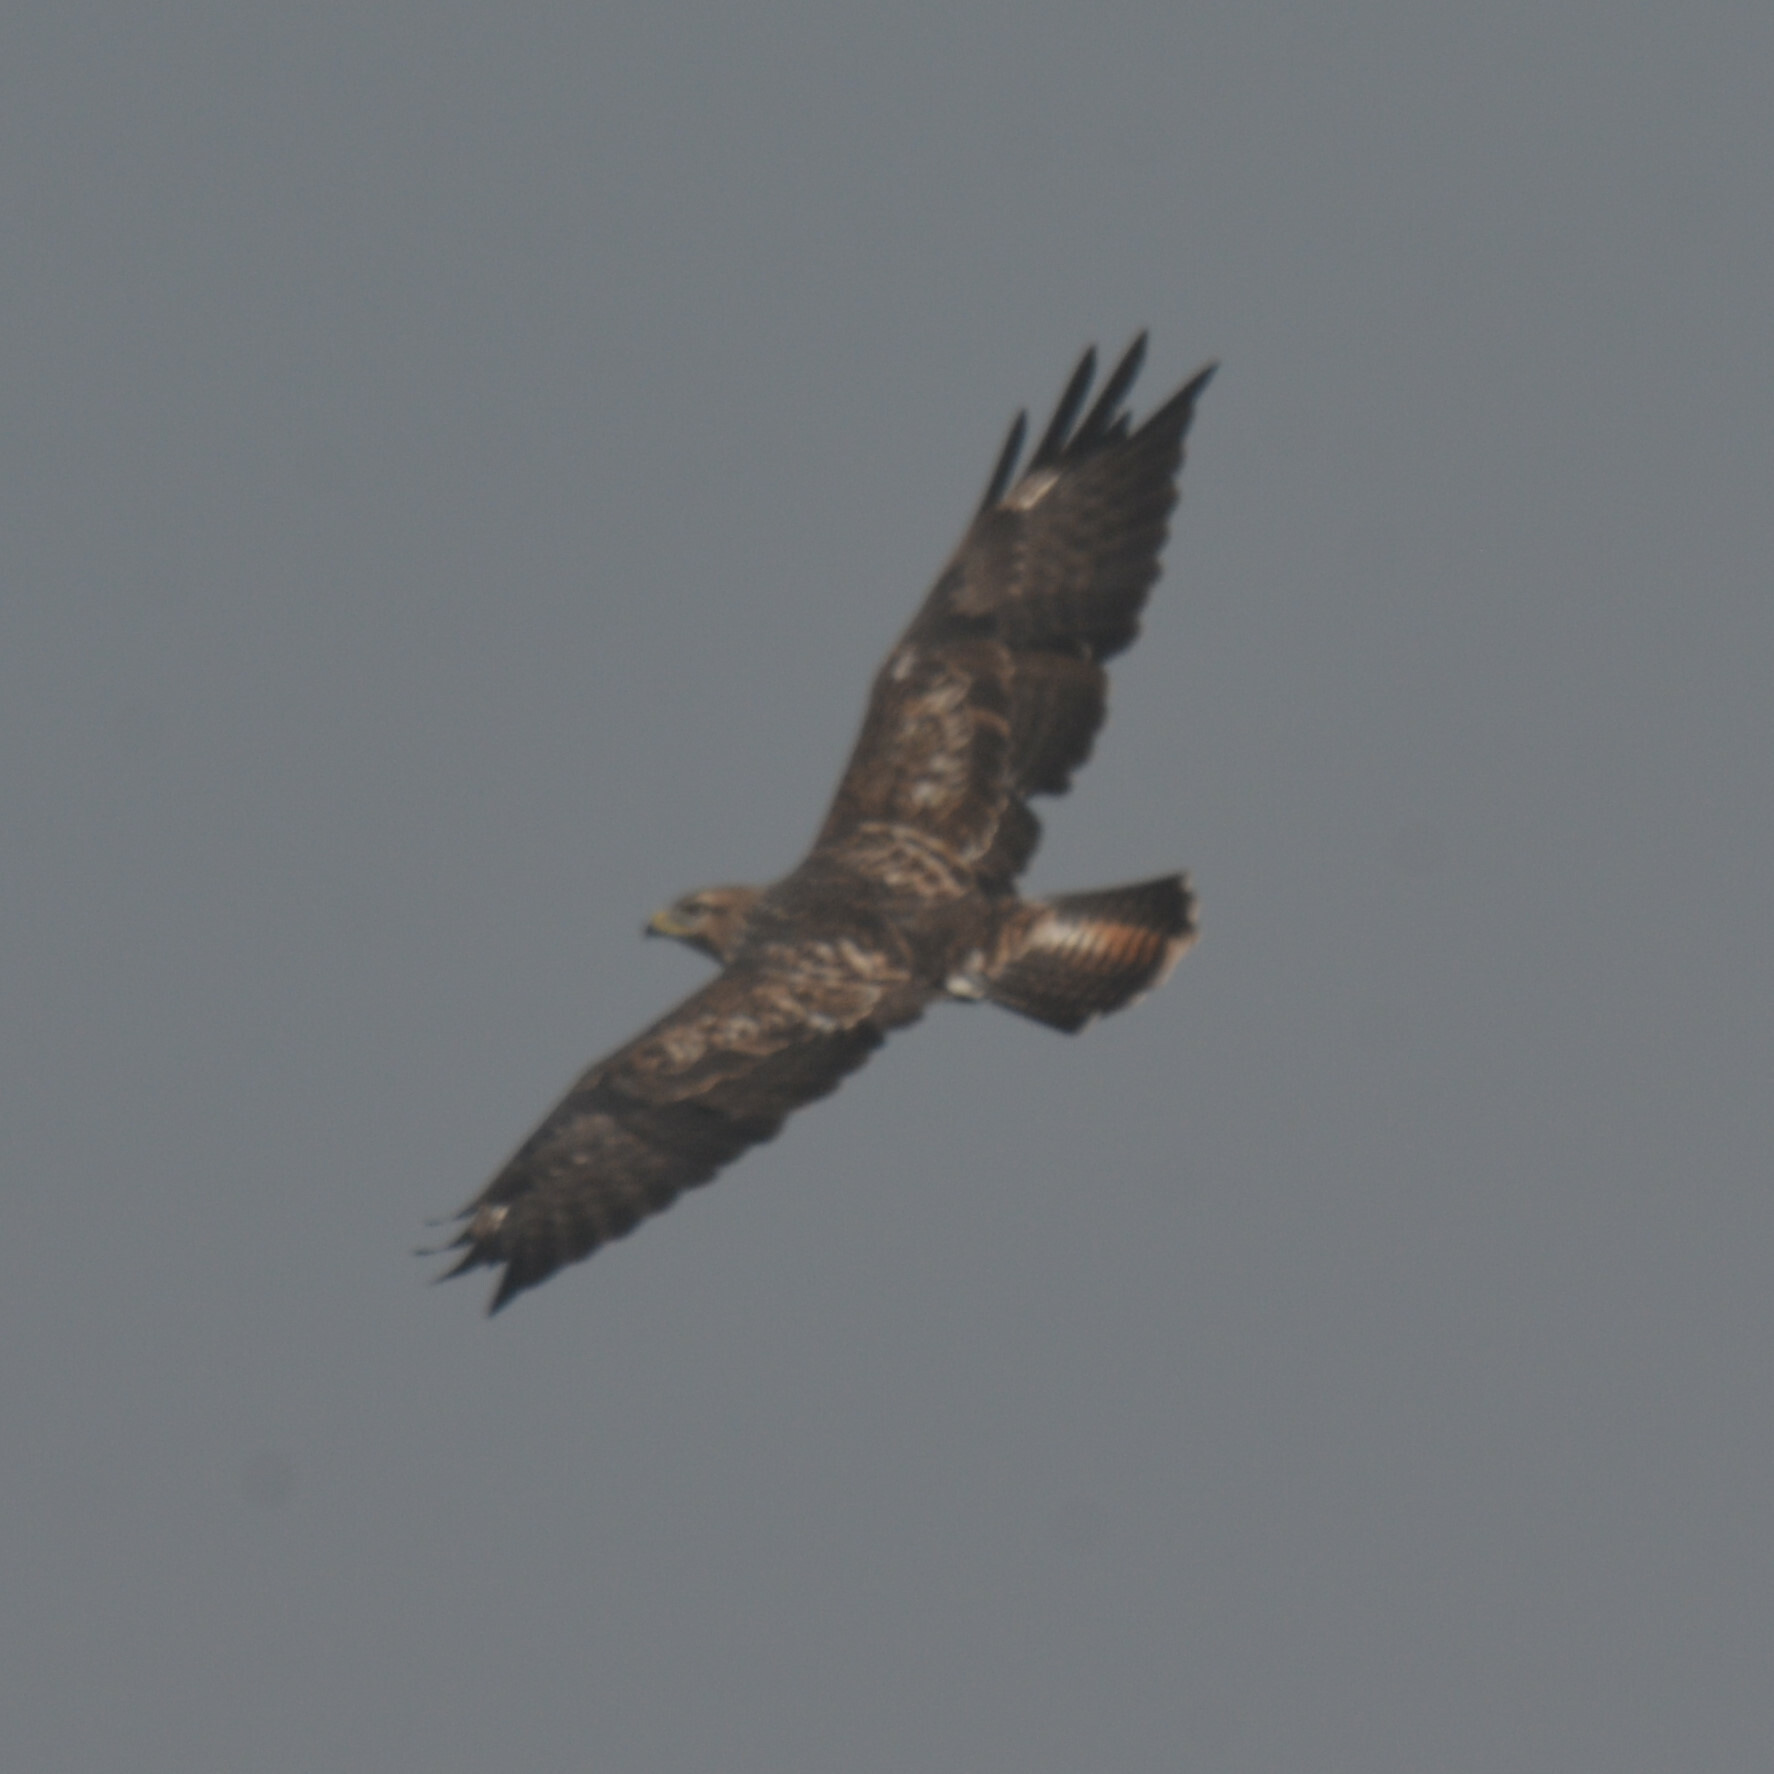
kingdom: Animalia
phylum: Chordata
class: Aves
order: Accipitriformes
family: Accipitridae
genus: Buteo
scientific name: Buteo buteo
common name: Common buzzard
